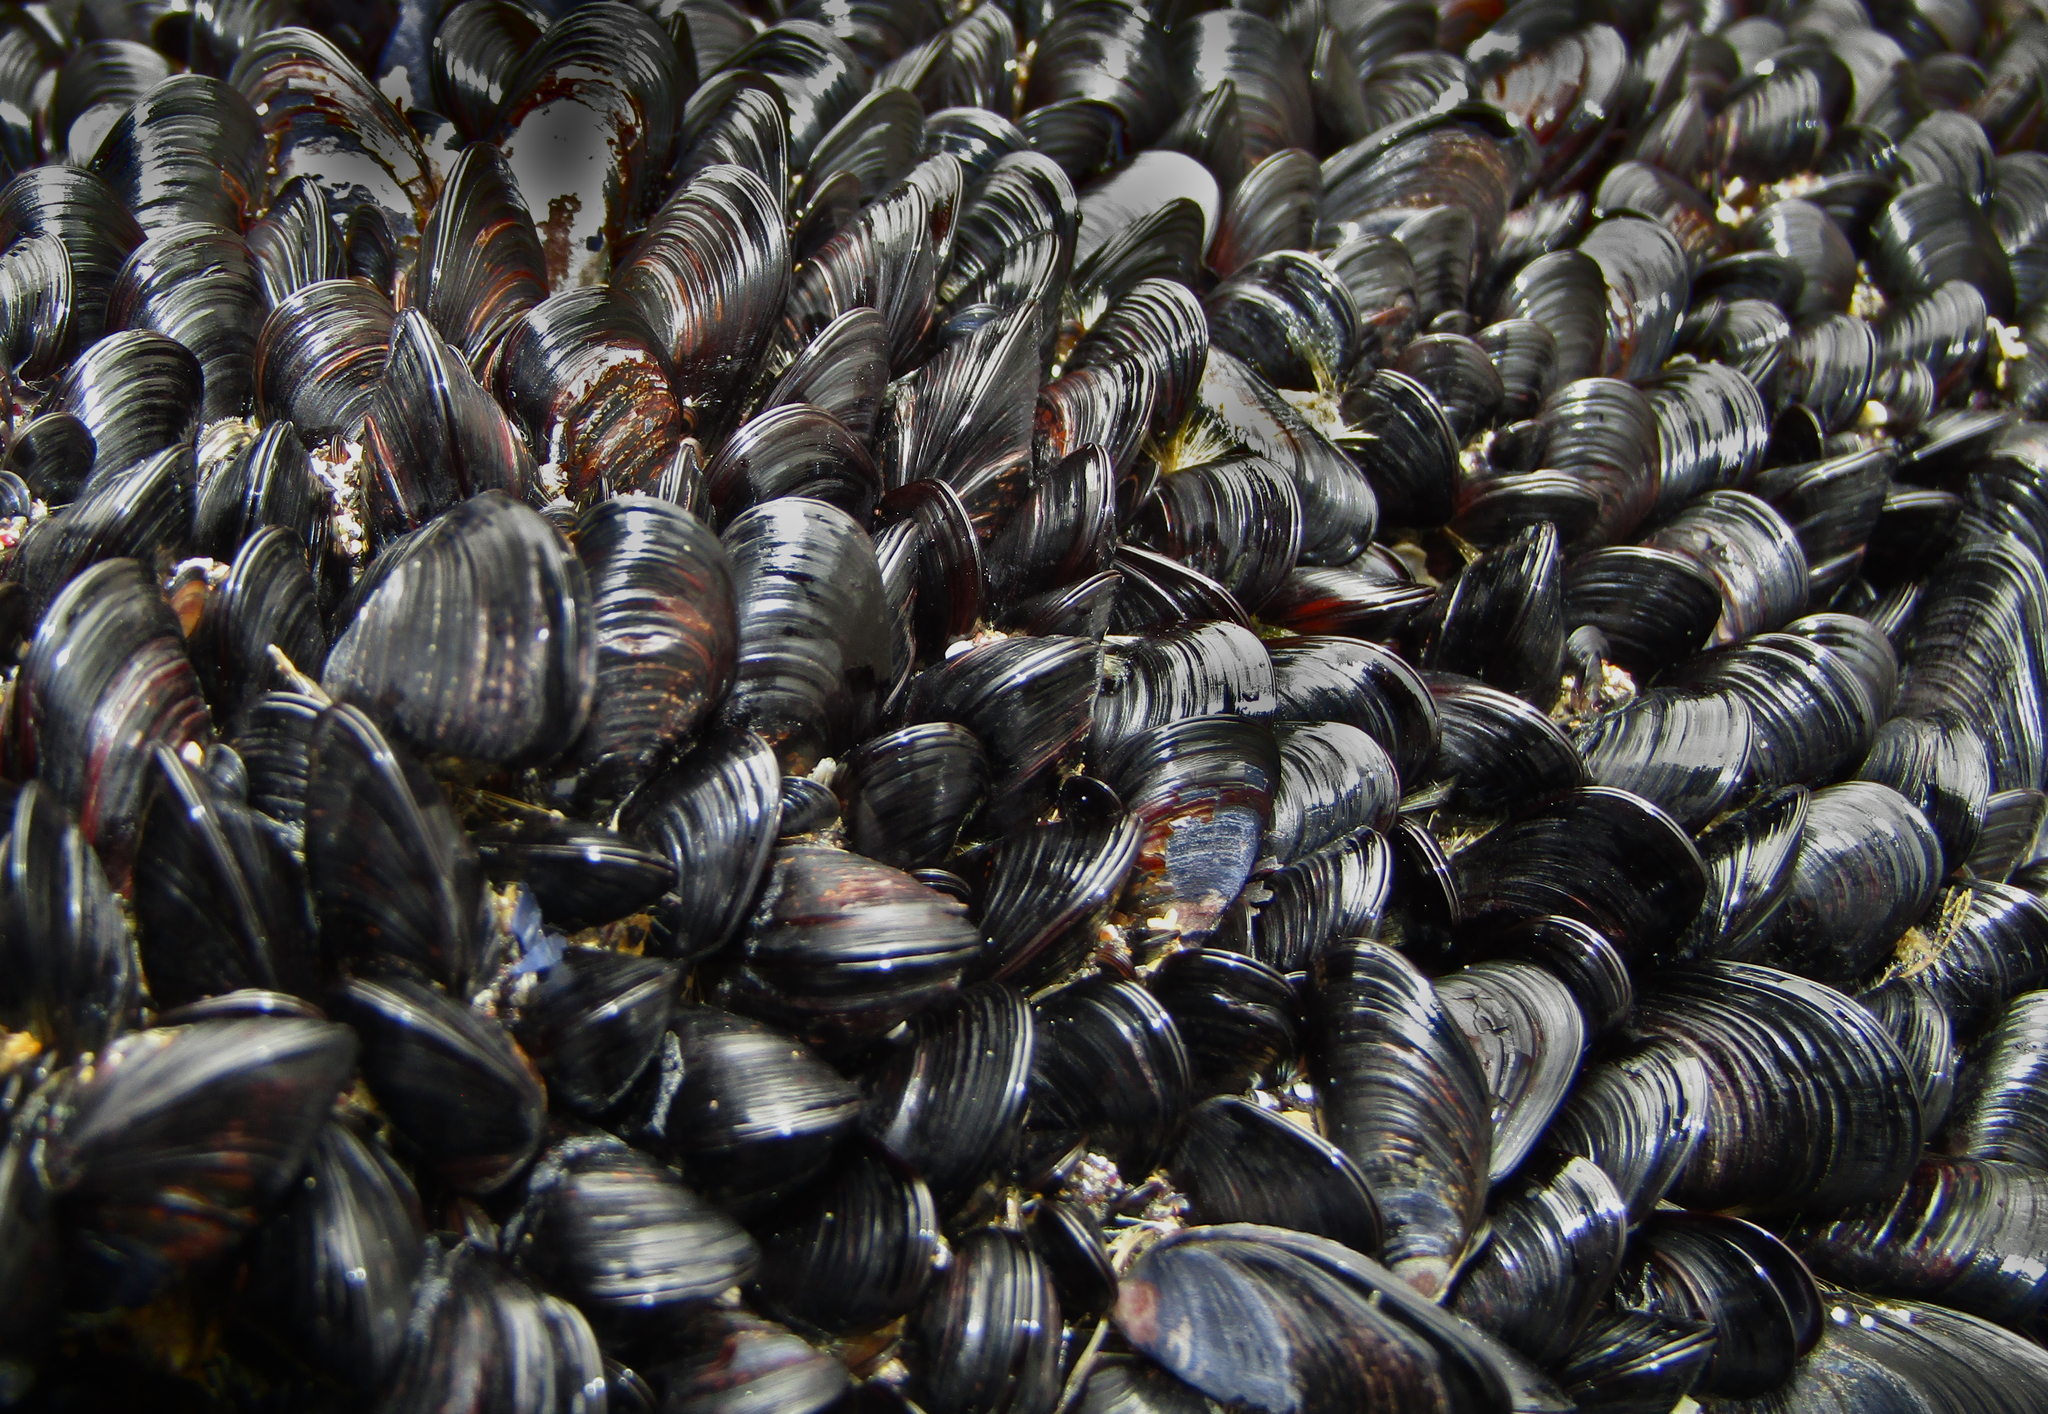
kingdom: Animalia
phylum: Mollusca
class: Bivalvia
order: Mytilida
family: Mytilidae
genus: Xenostrobus
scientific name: Xenostrobus neozelanicus
